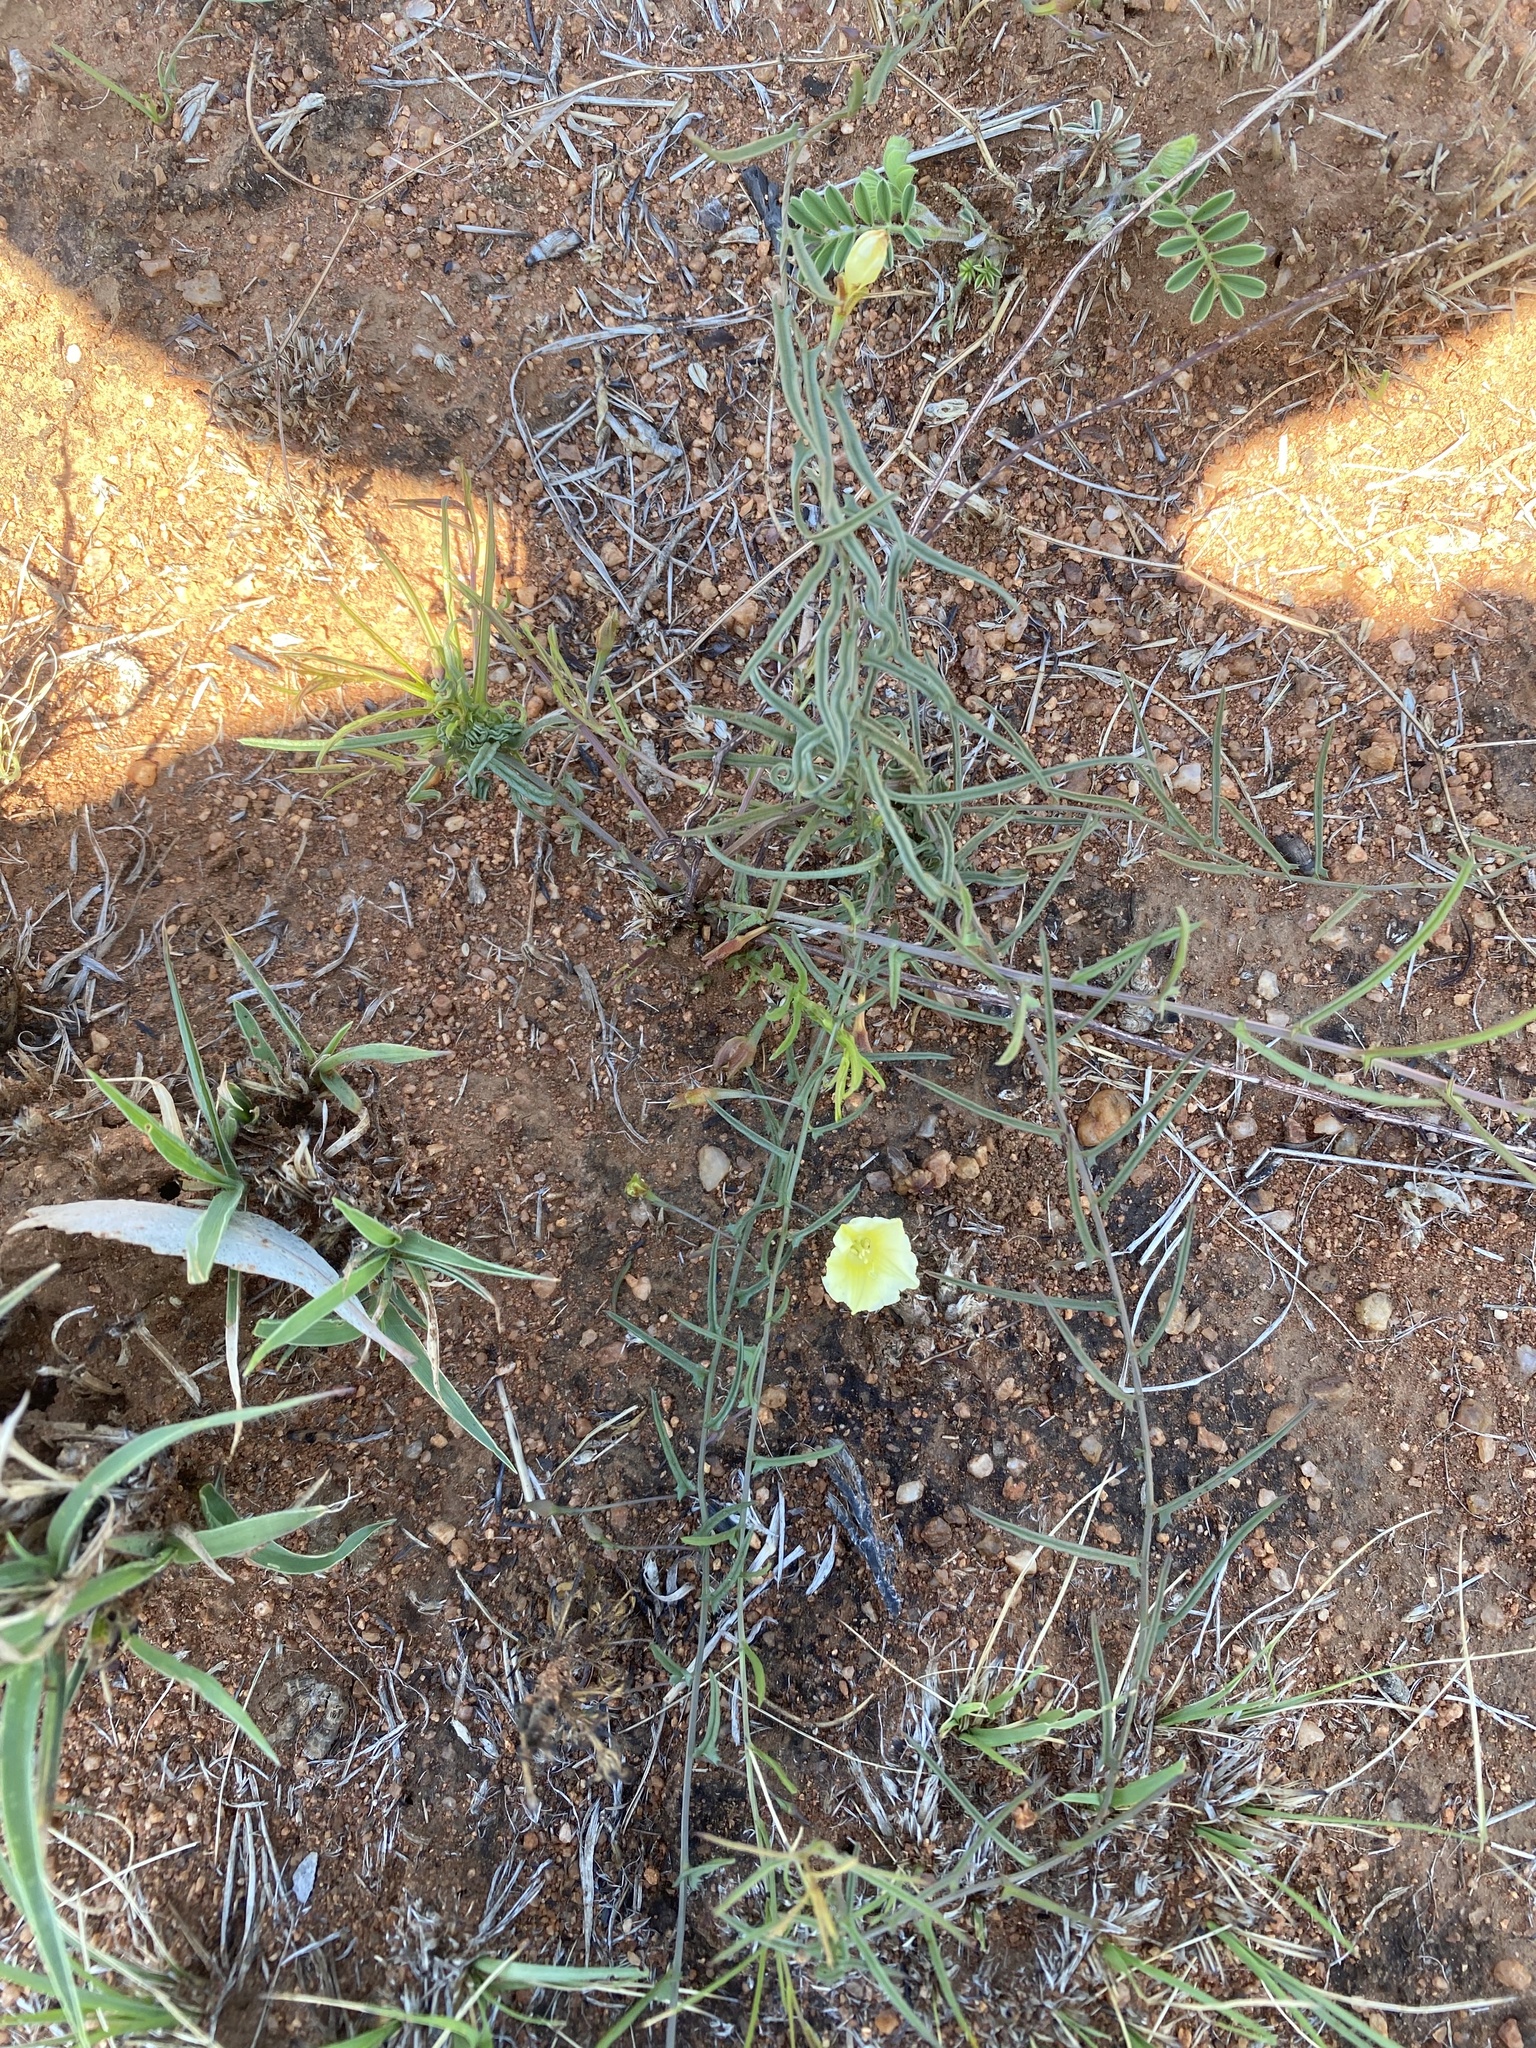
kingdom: Plantae
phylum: Tracheophyta
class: Magnoliopsida
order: Solanales
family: Convolvulaceae
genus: Xenostegia
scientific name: Xenostegia tridentata
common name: African morningvine
